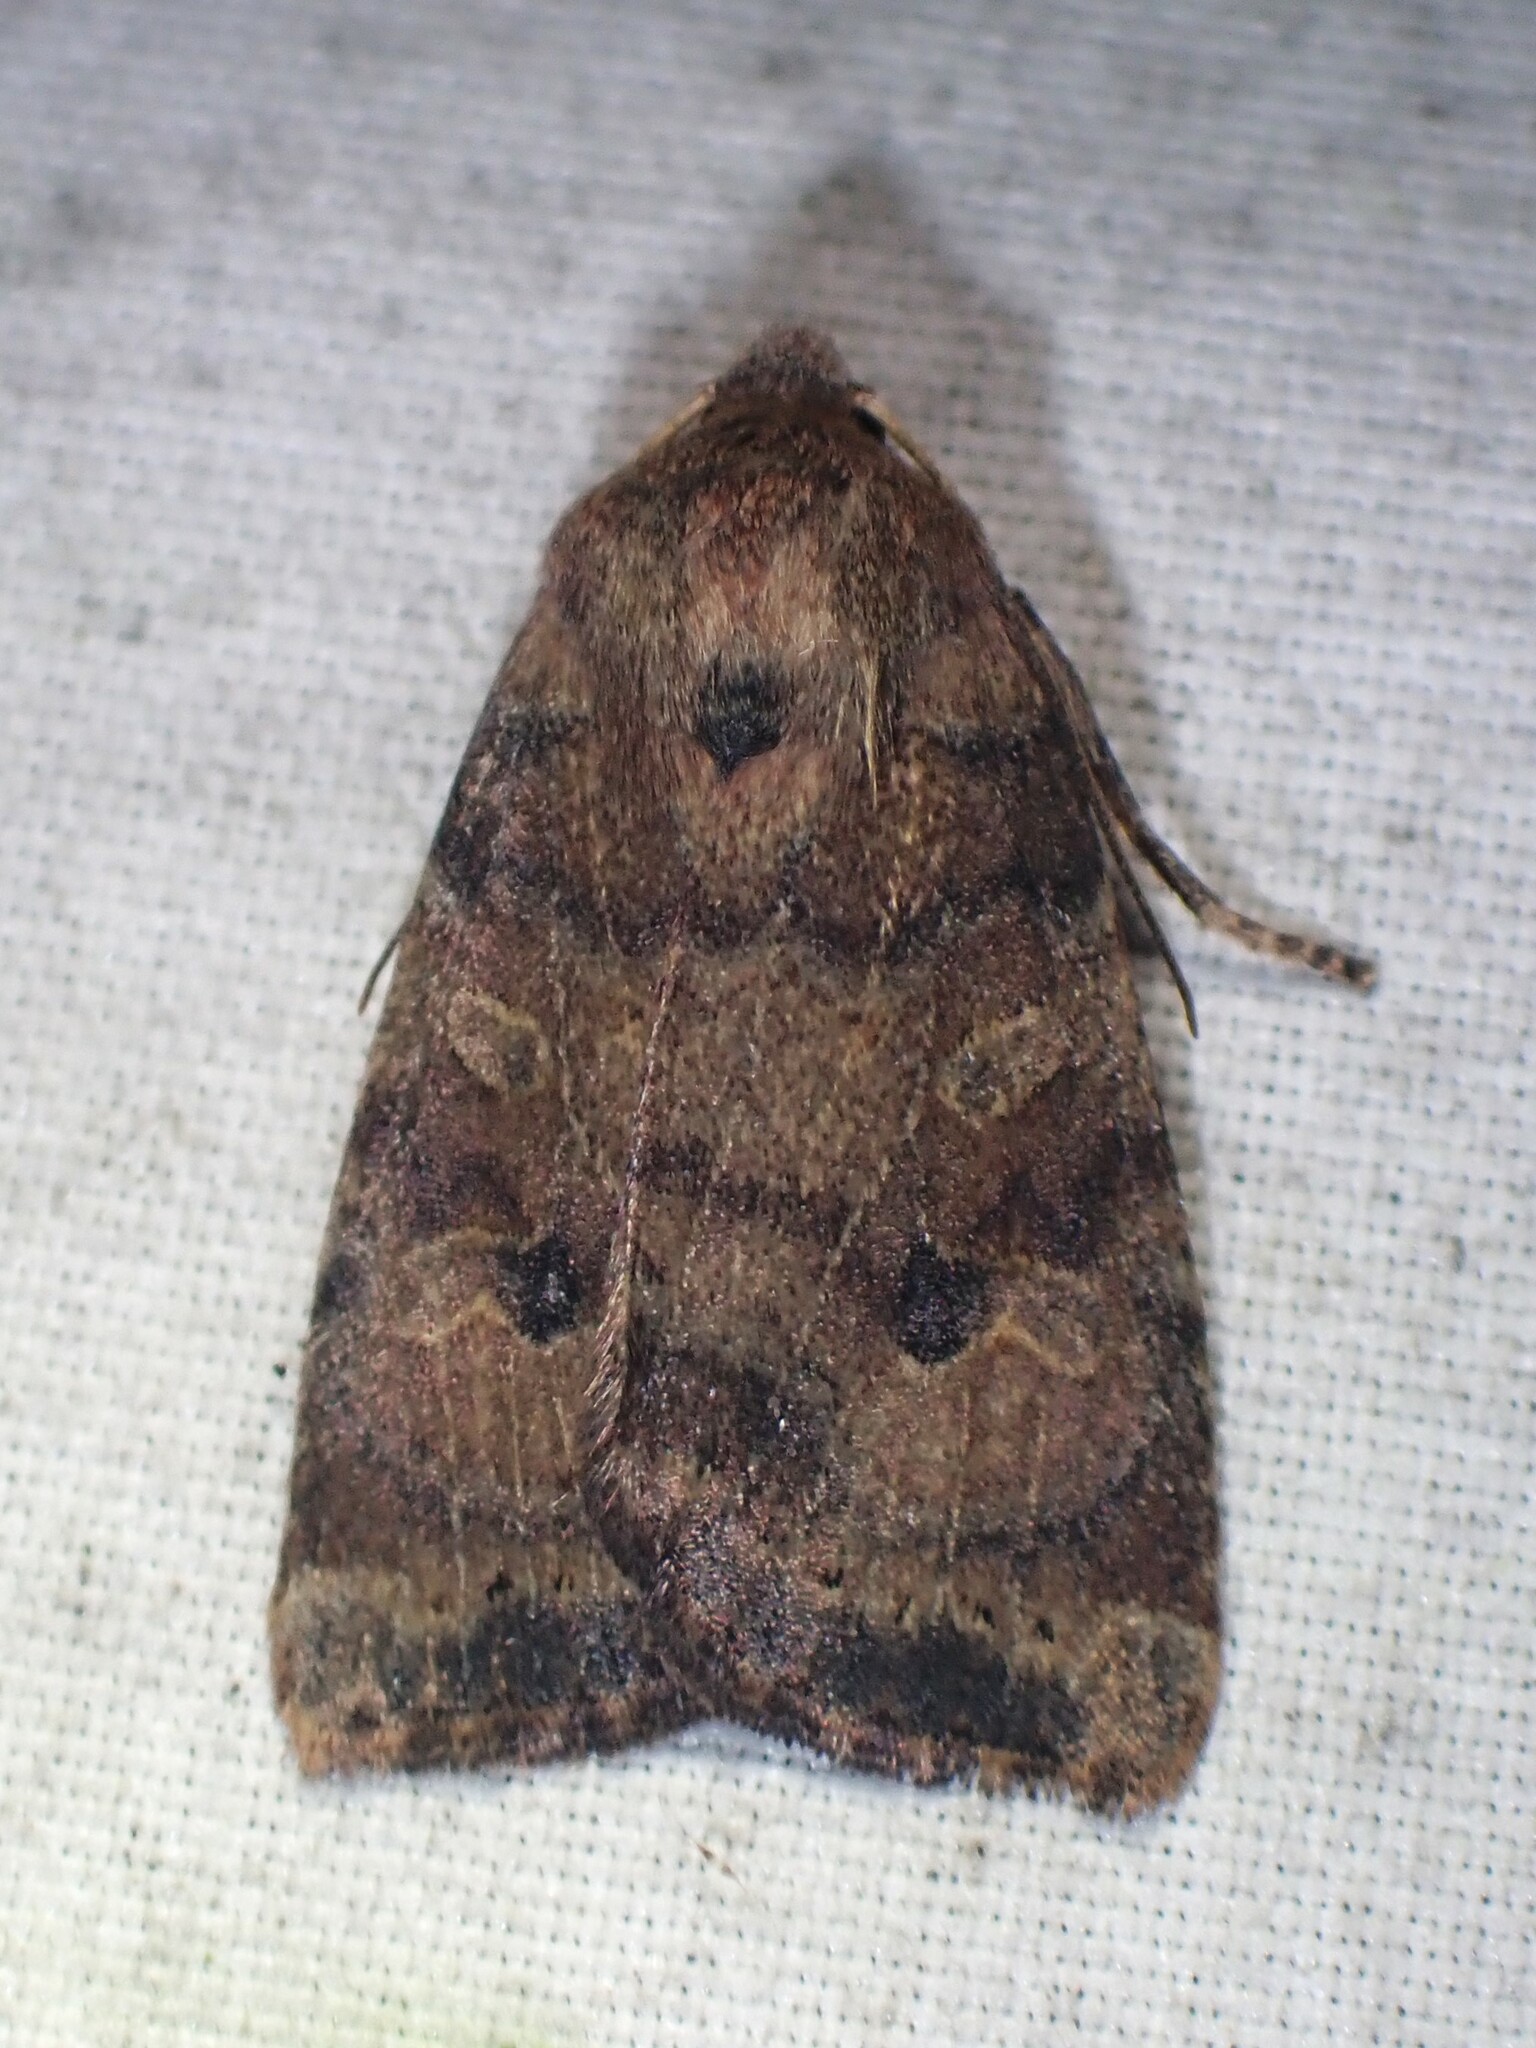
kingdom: Animalia
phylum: Arthropoda
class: Insecta
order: Lepidoptera
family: Noctuidae
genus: Anathix
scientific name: Anathix puta
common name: Puta sallow
